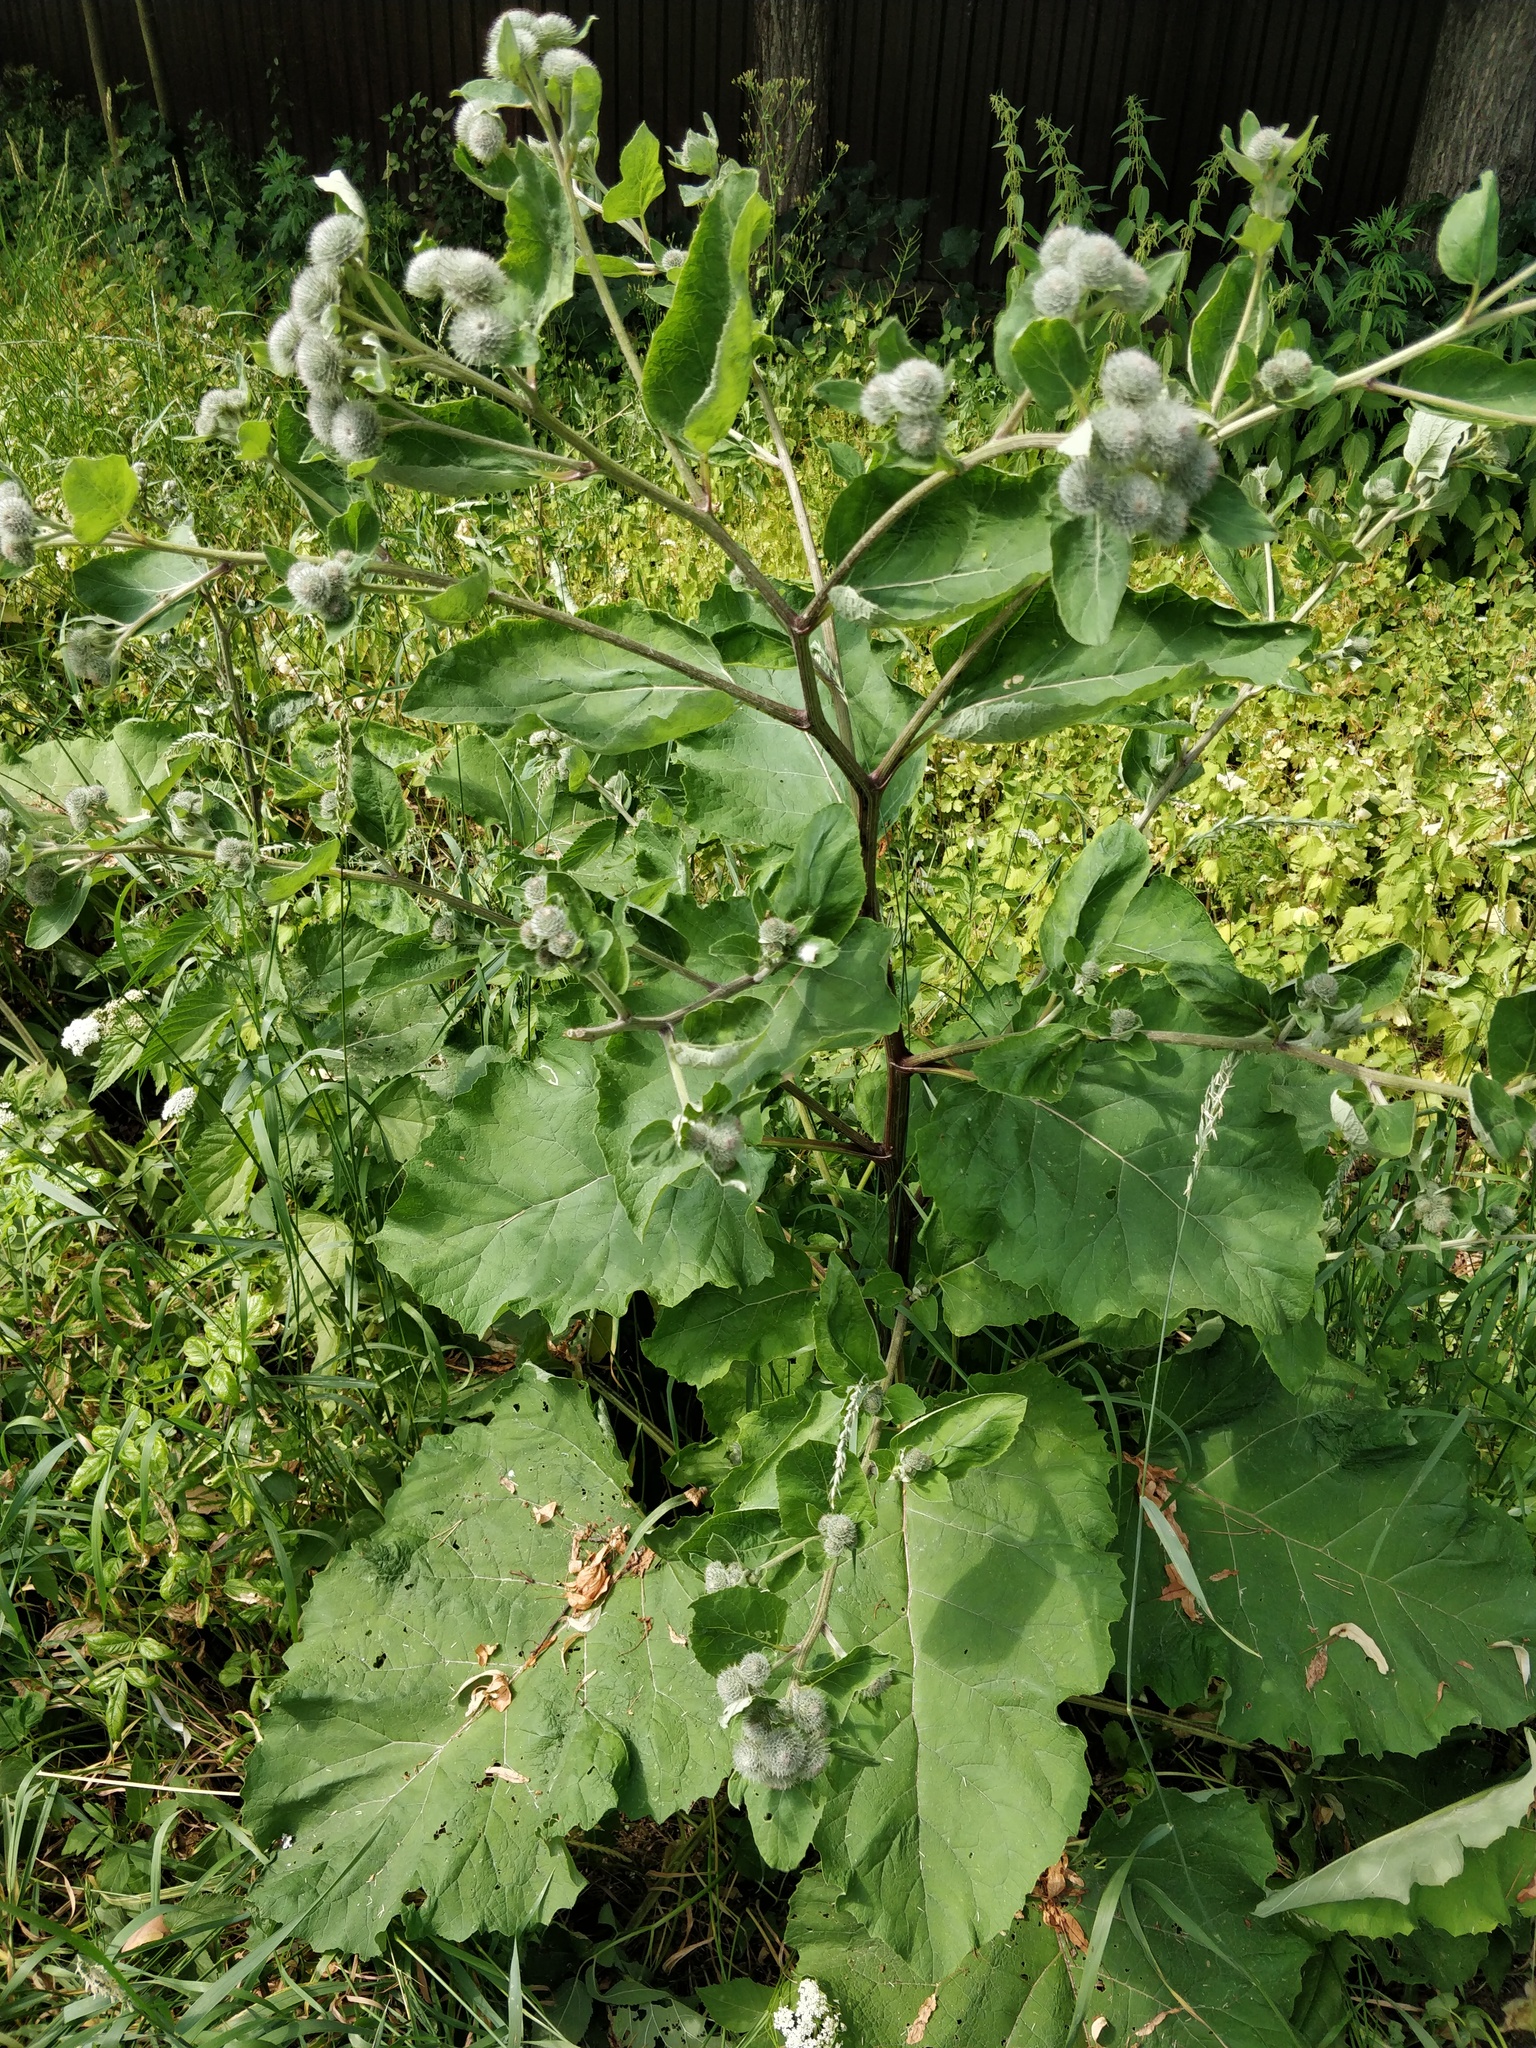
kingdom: Plantae
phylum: Tracheophyta
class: Magnoliopsida
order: Asterales
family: Asteraceae
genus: Arctium
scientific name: Arctium tomentosum
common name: Woolly burdock
